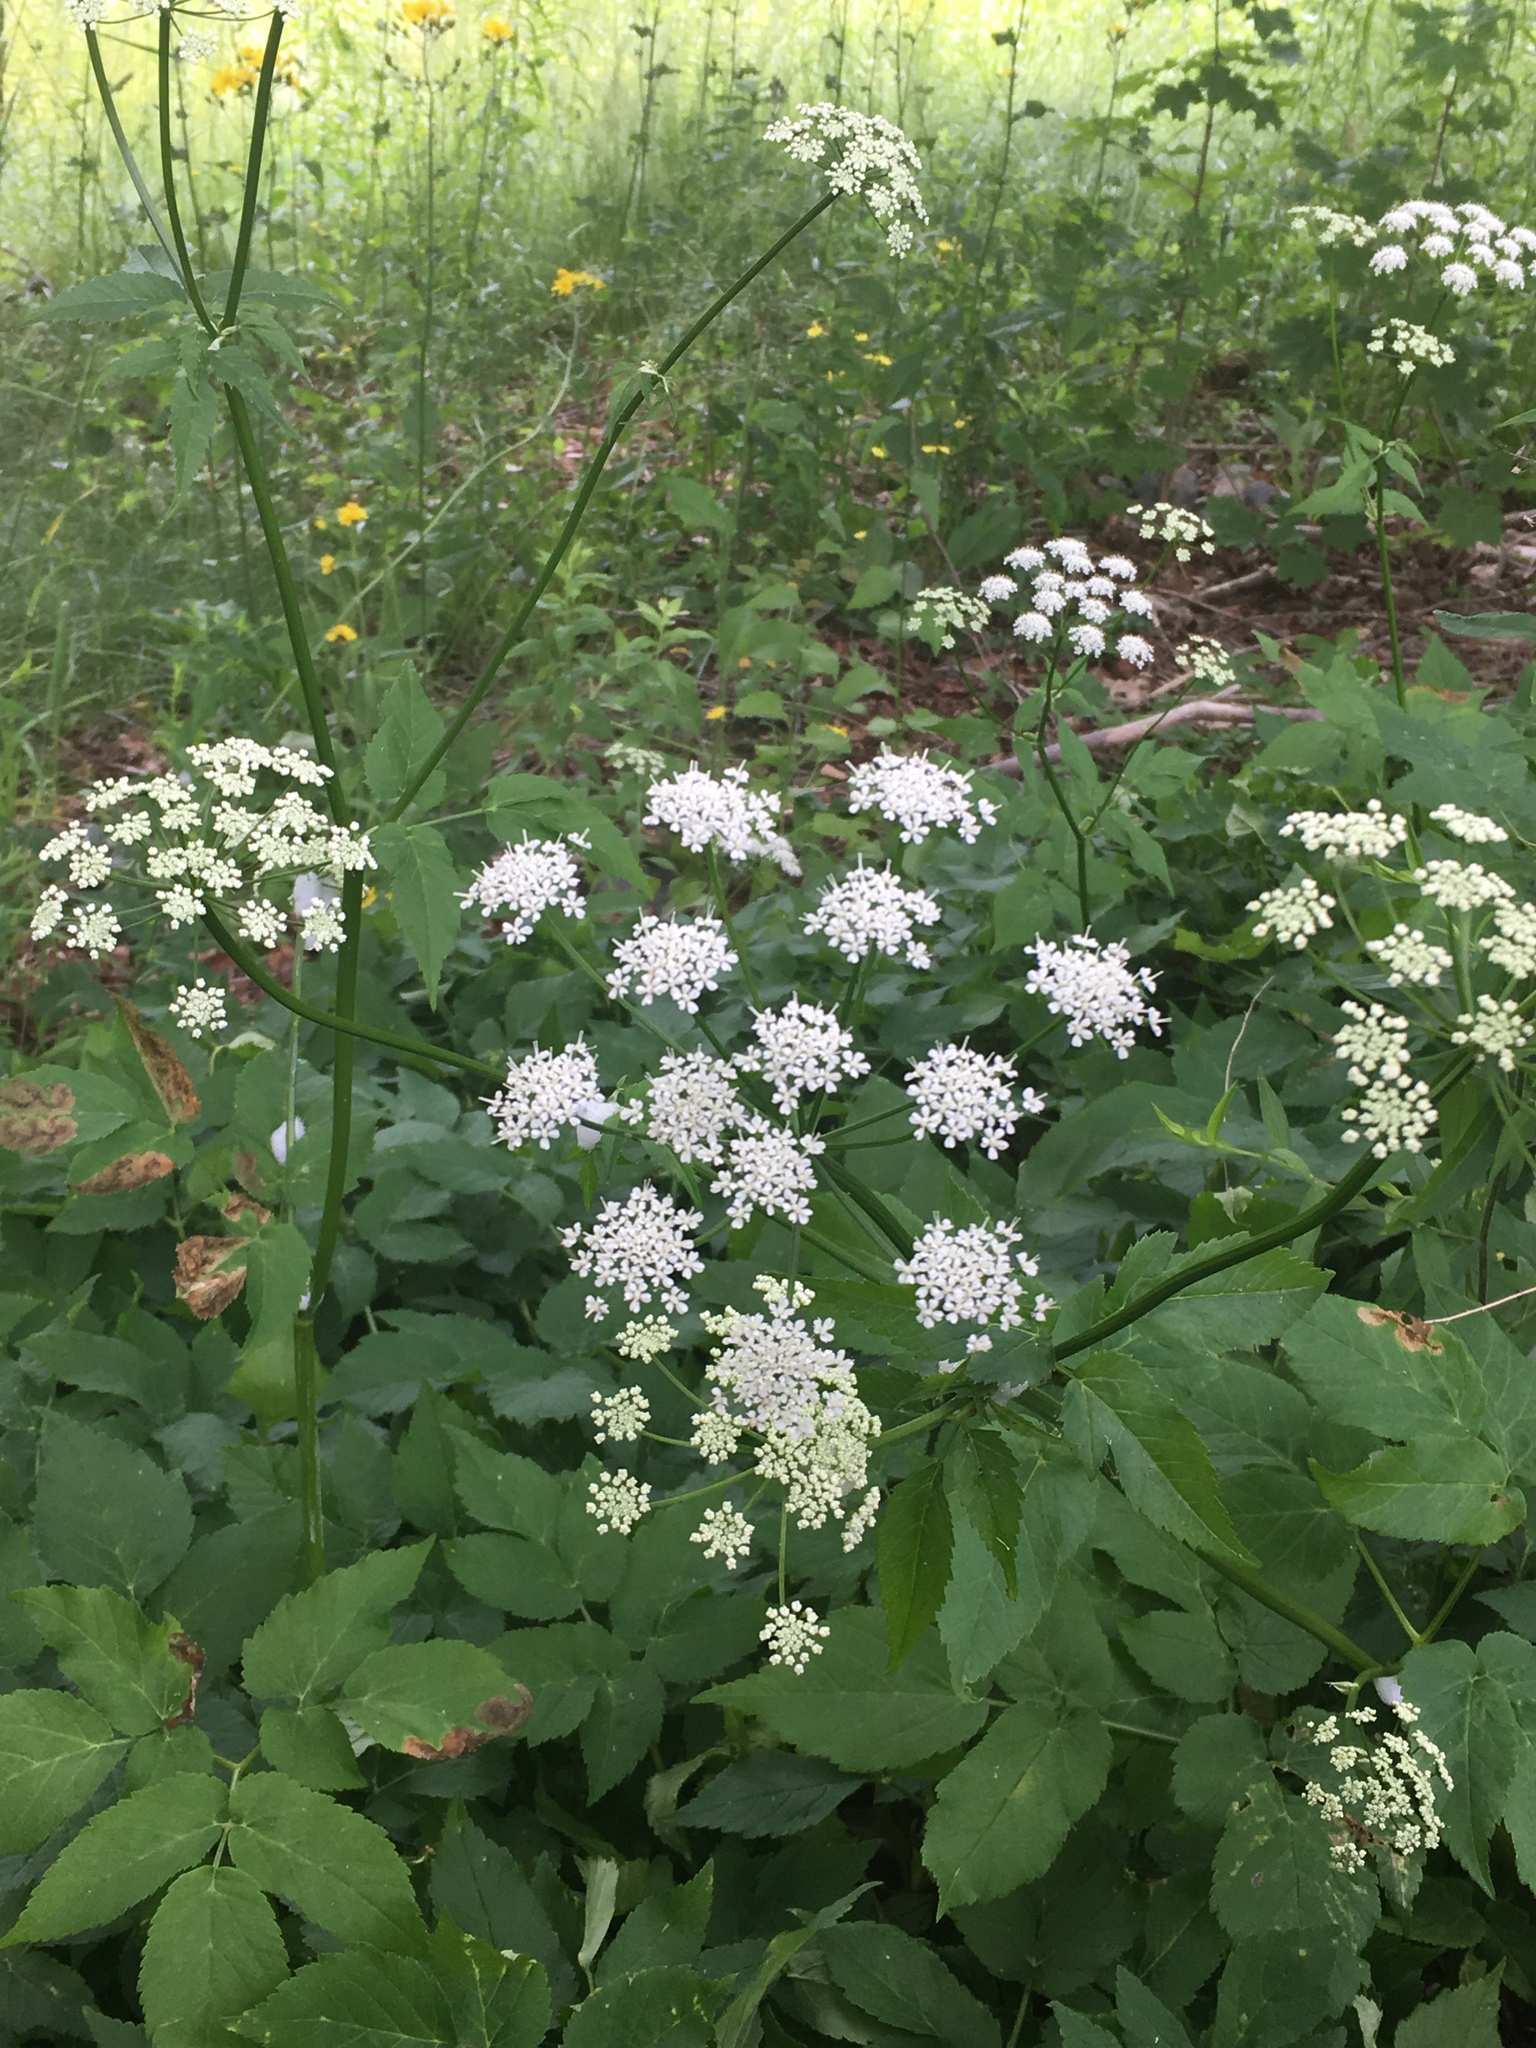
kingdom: Plantae
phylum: Tracheophyta
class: Magnoliopsida
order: Apiales
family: Apiaceae
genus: Aegopodium
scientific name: Aegopodium podagraria
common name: Ground-elder
